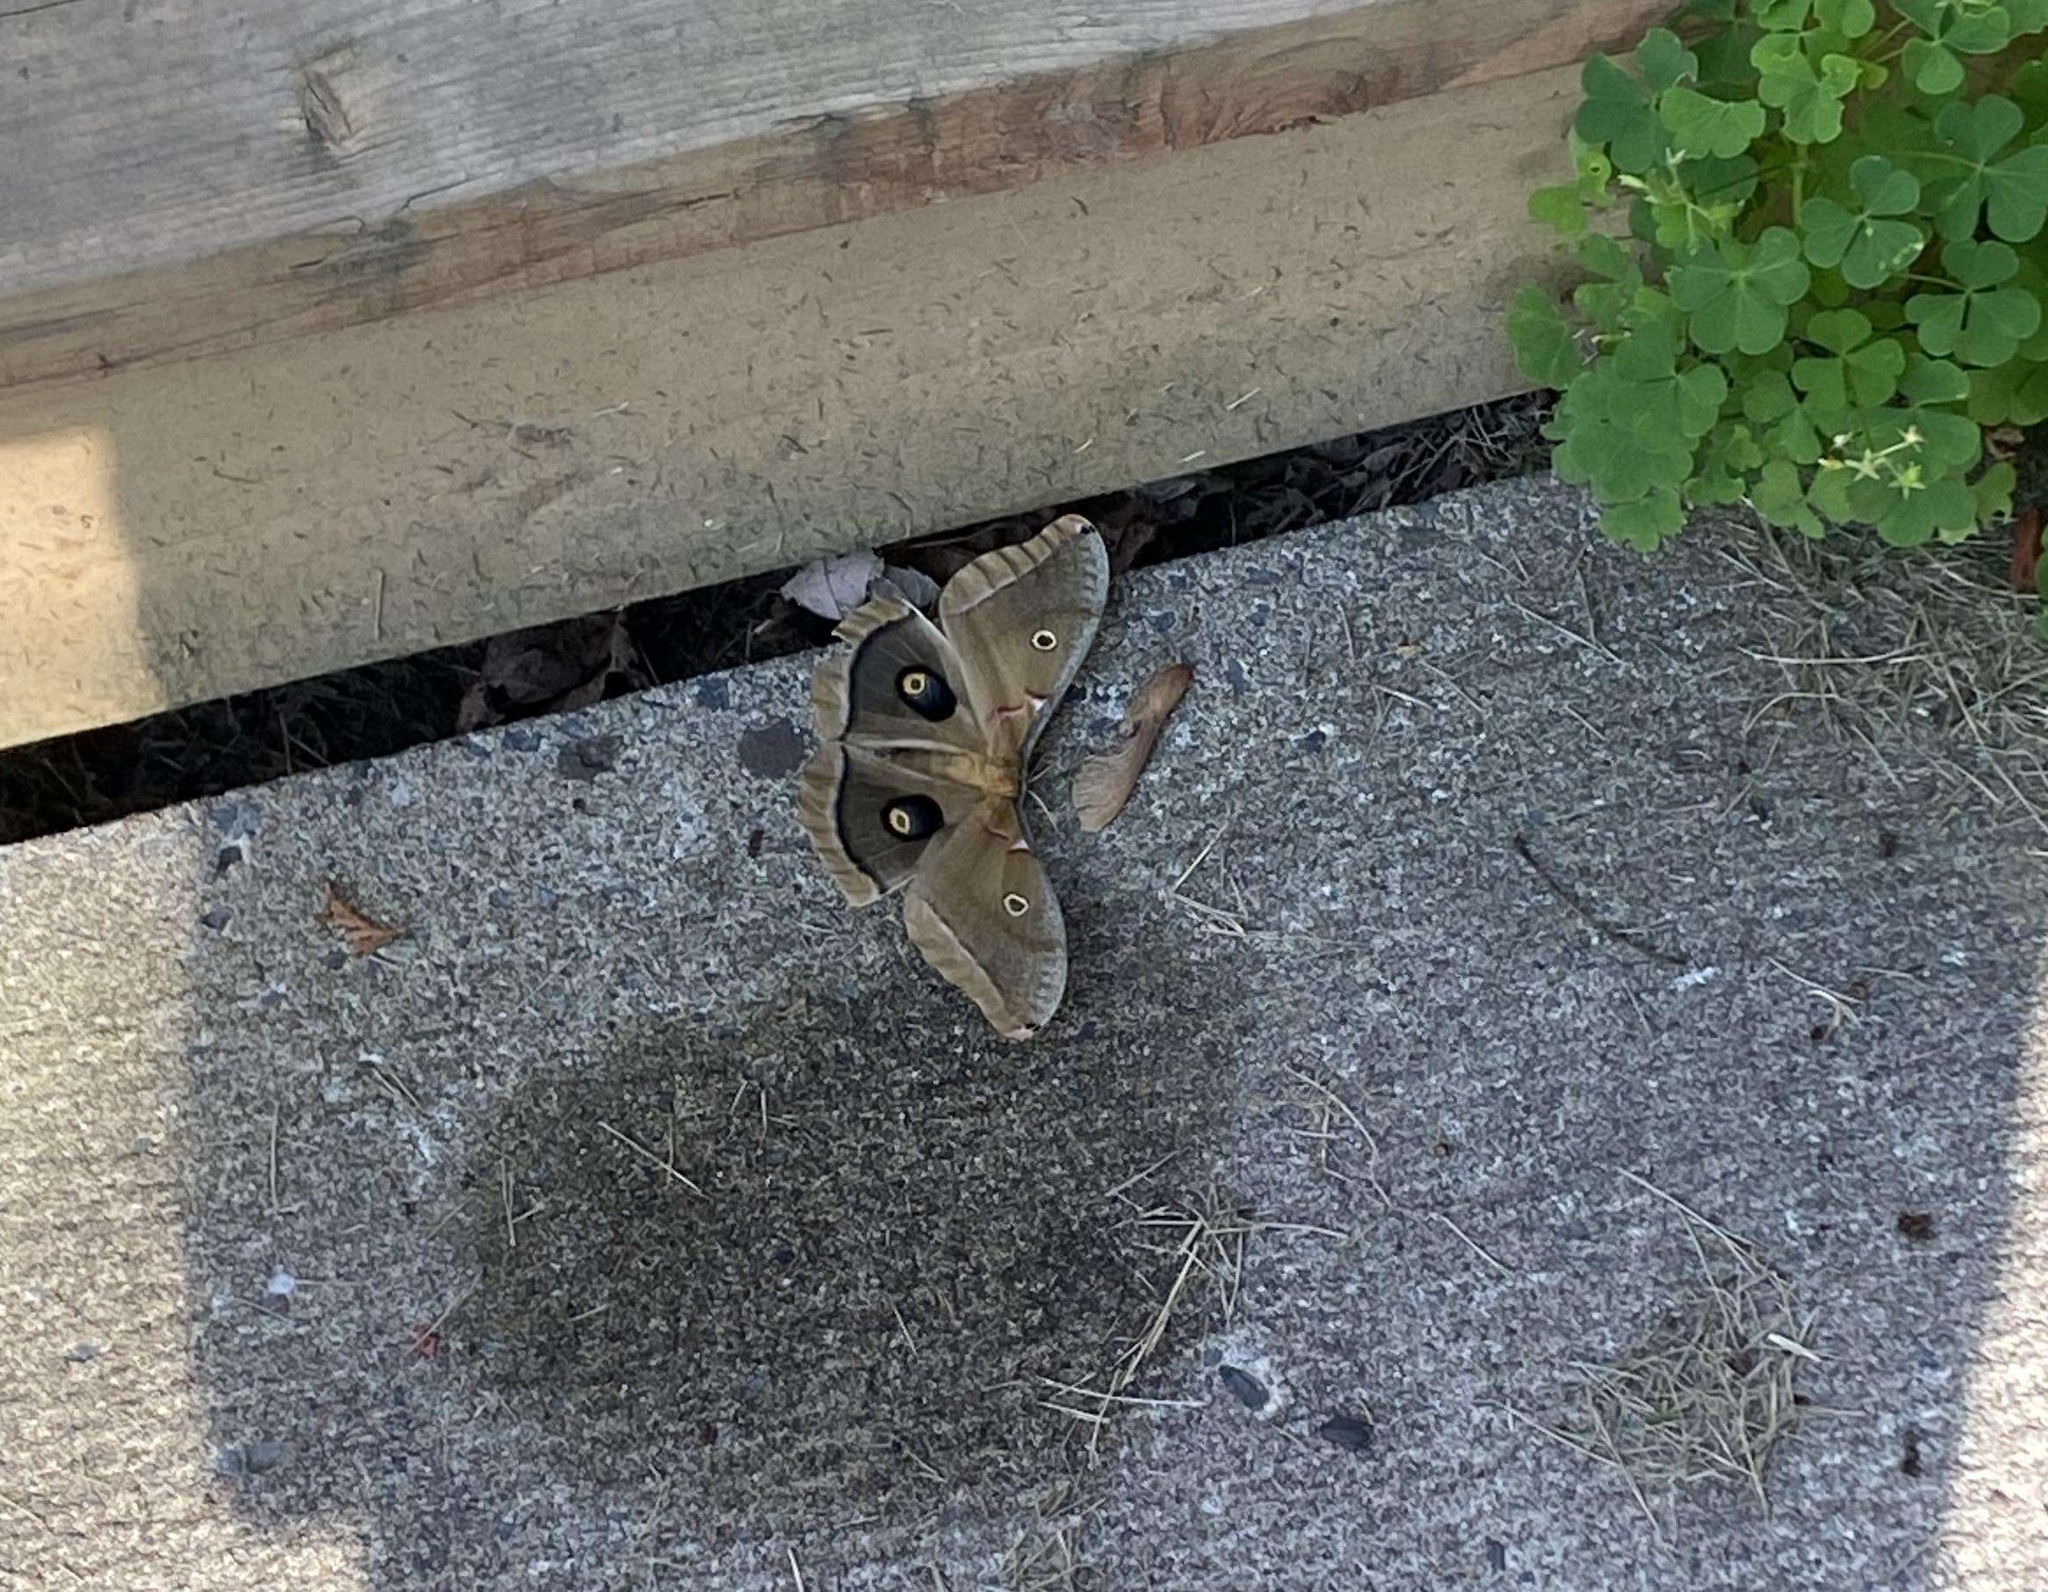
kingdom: Animalia
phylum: Arthropoda
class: Insecta
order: Lepidoptera
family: Saturniidae
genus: Antheraea
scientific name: Antheraea polyphemus
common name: Polyphemus moth
